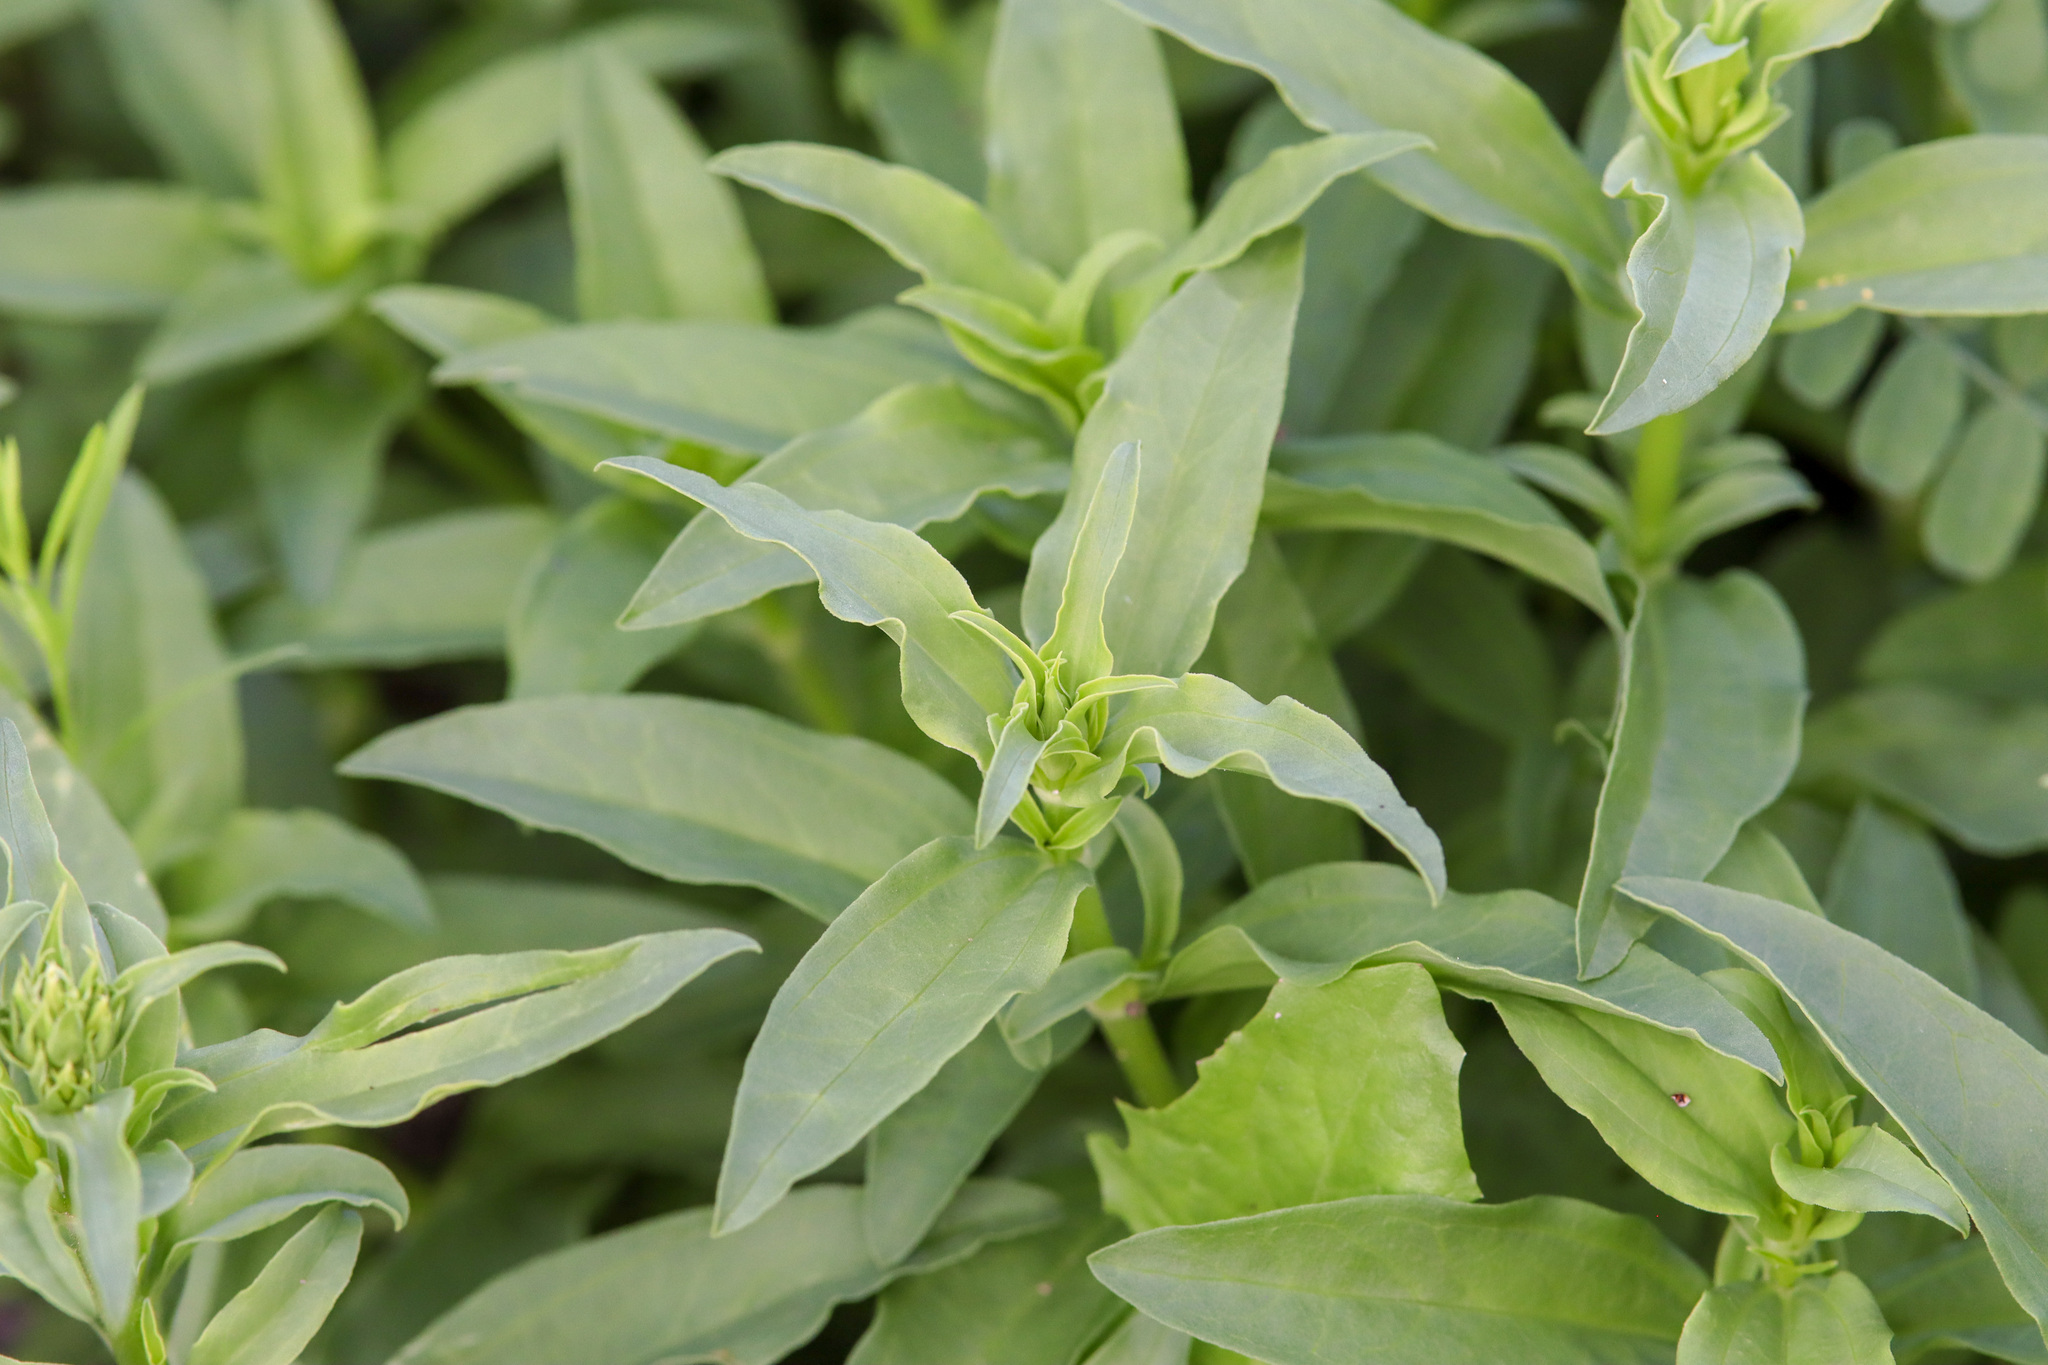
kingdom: Plantae
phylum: Tracheophyta
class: Magnoliopsida
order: Caryophyllales
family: Caryophyllaceae
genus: Saponaria
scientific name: Saponaria officinalis
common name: Soapwort
